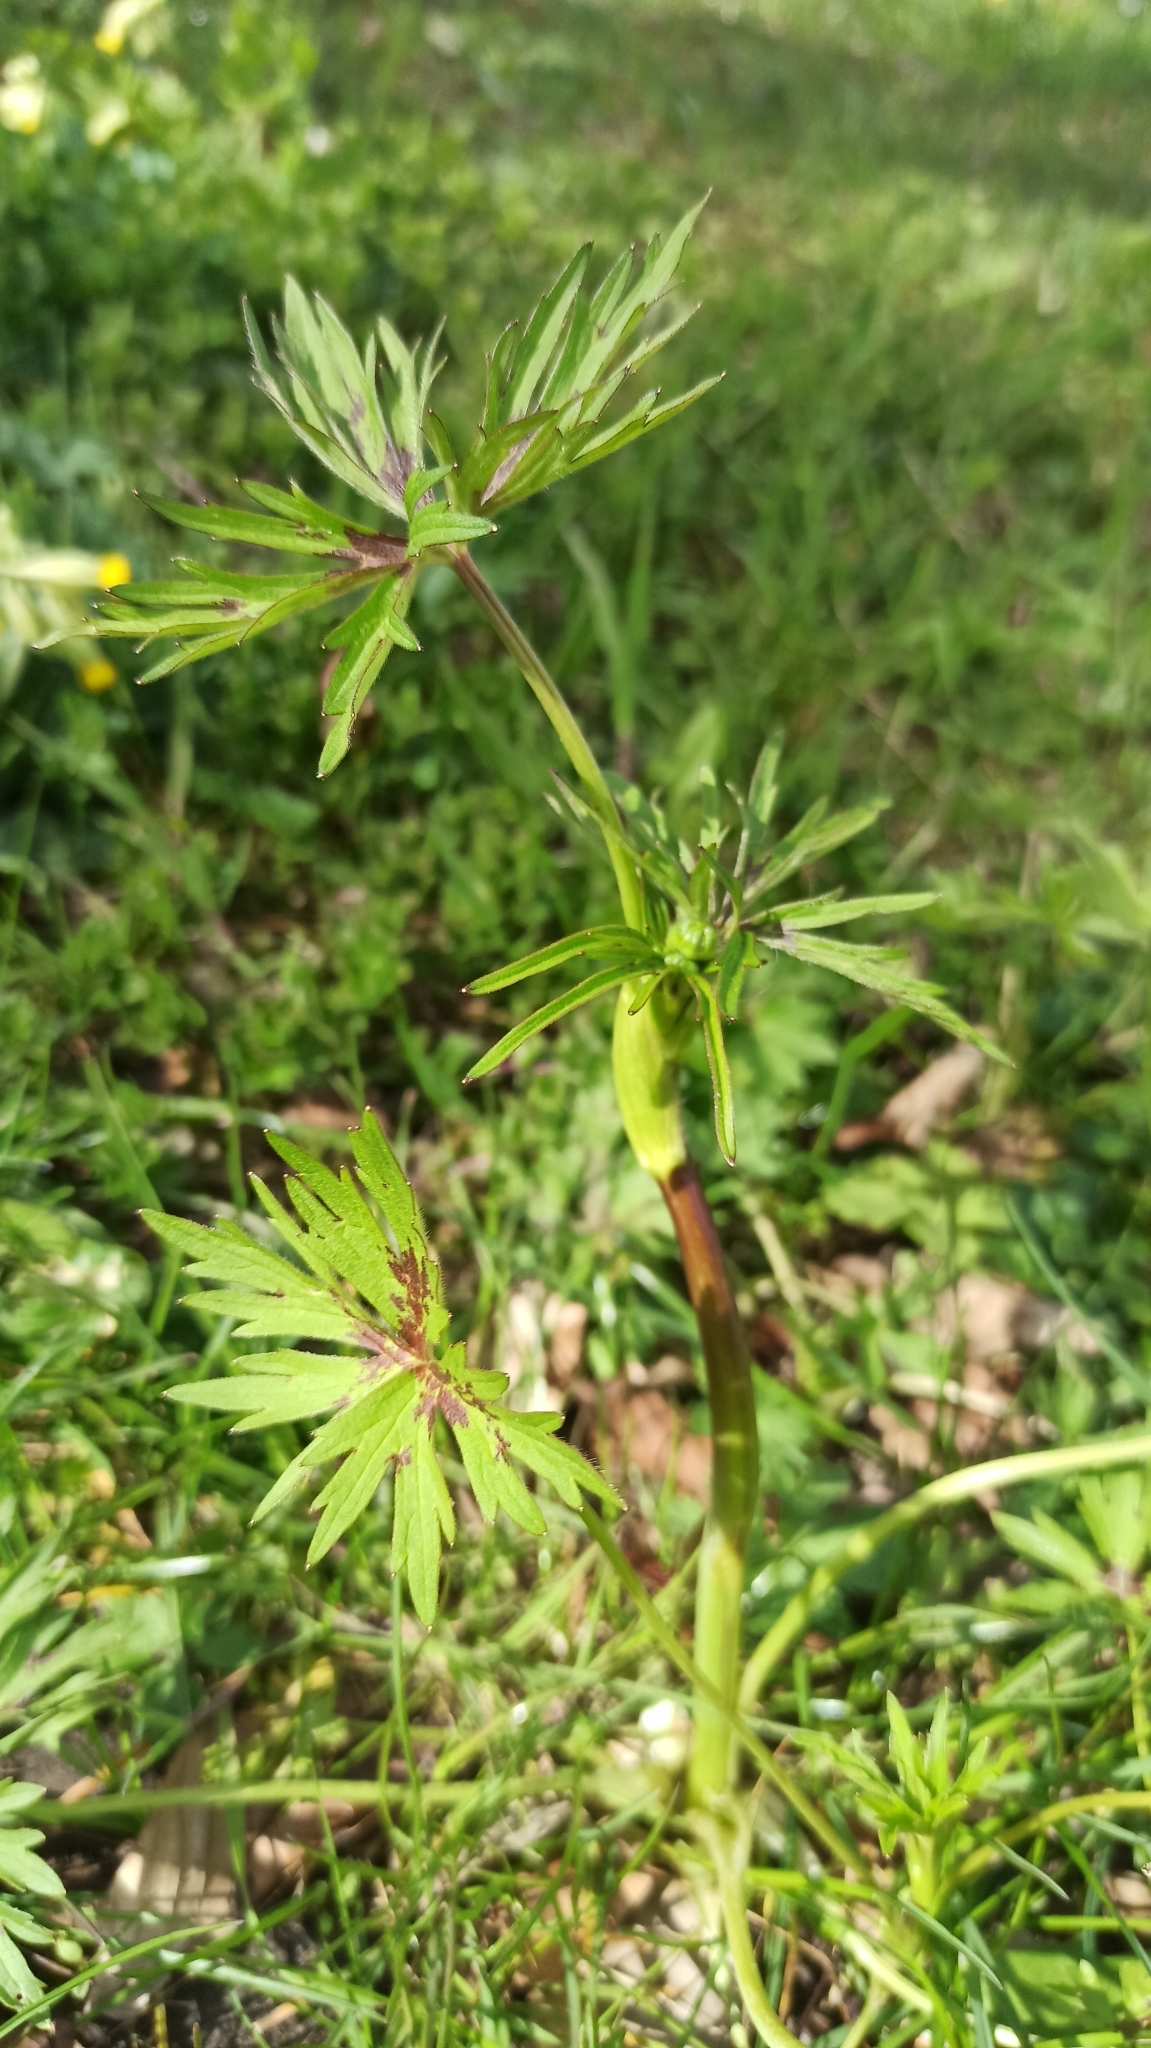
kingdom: Plantae
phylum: Tracheophyta
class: Magnoliopsida
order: Ranunculales
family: Ranunculaceae
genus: Ranunculus
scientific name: Ranunculus acris
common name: Meadow buttercup
